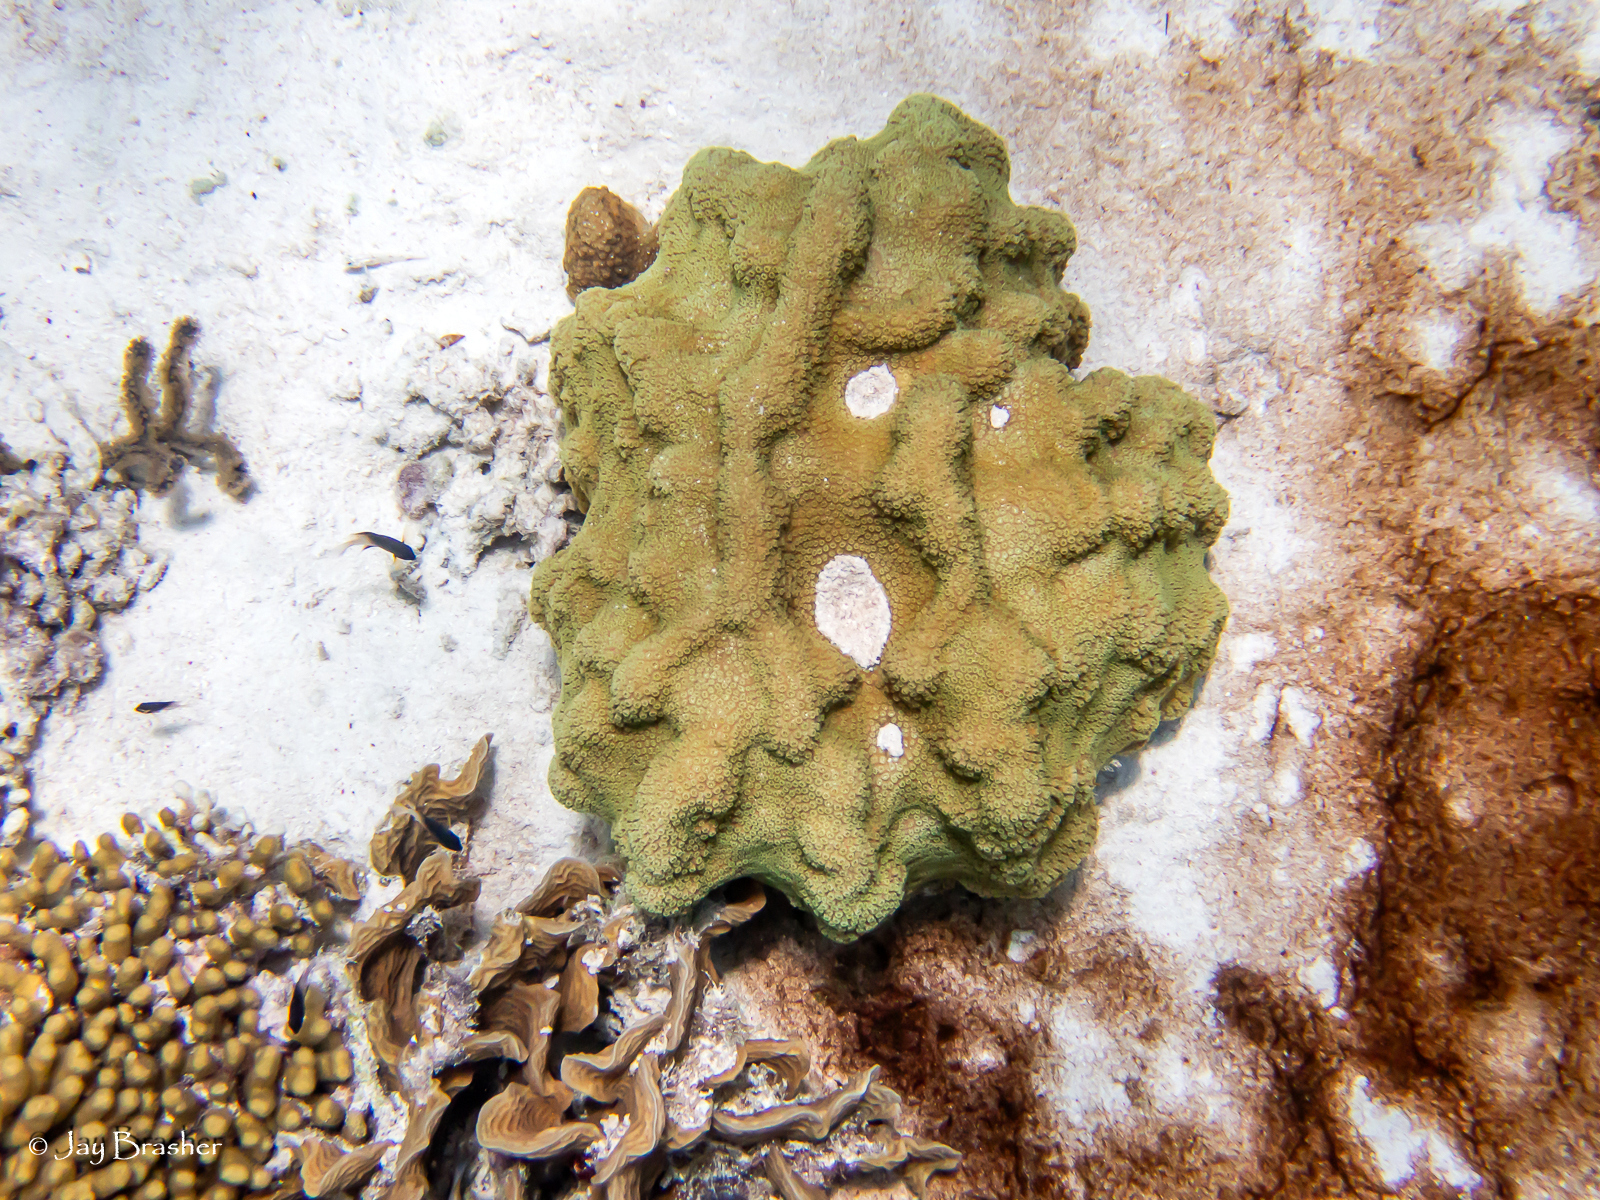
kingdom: Animalia
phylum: Cnidaria
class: Anthozoa
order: Scleractinia
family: Poritidae
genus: Porites
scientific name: Porites astreoides
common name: Mustard hill coral
